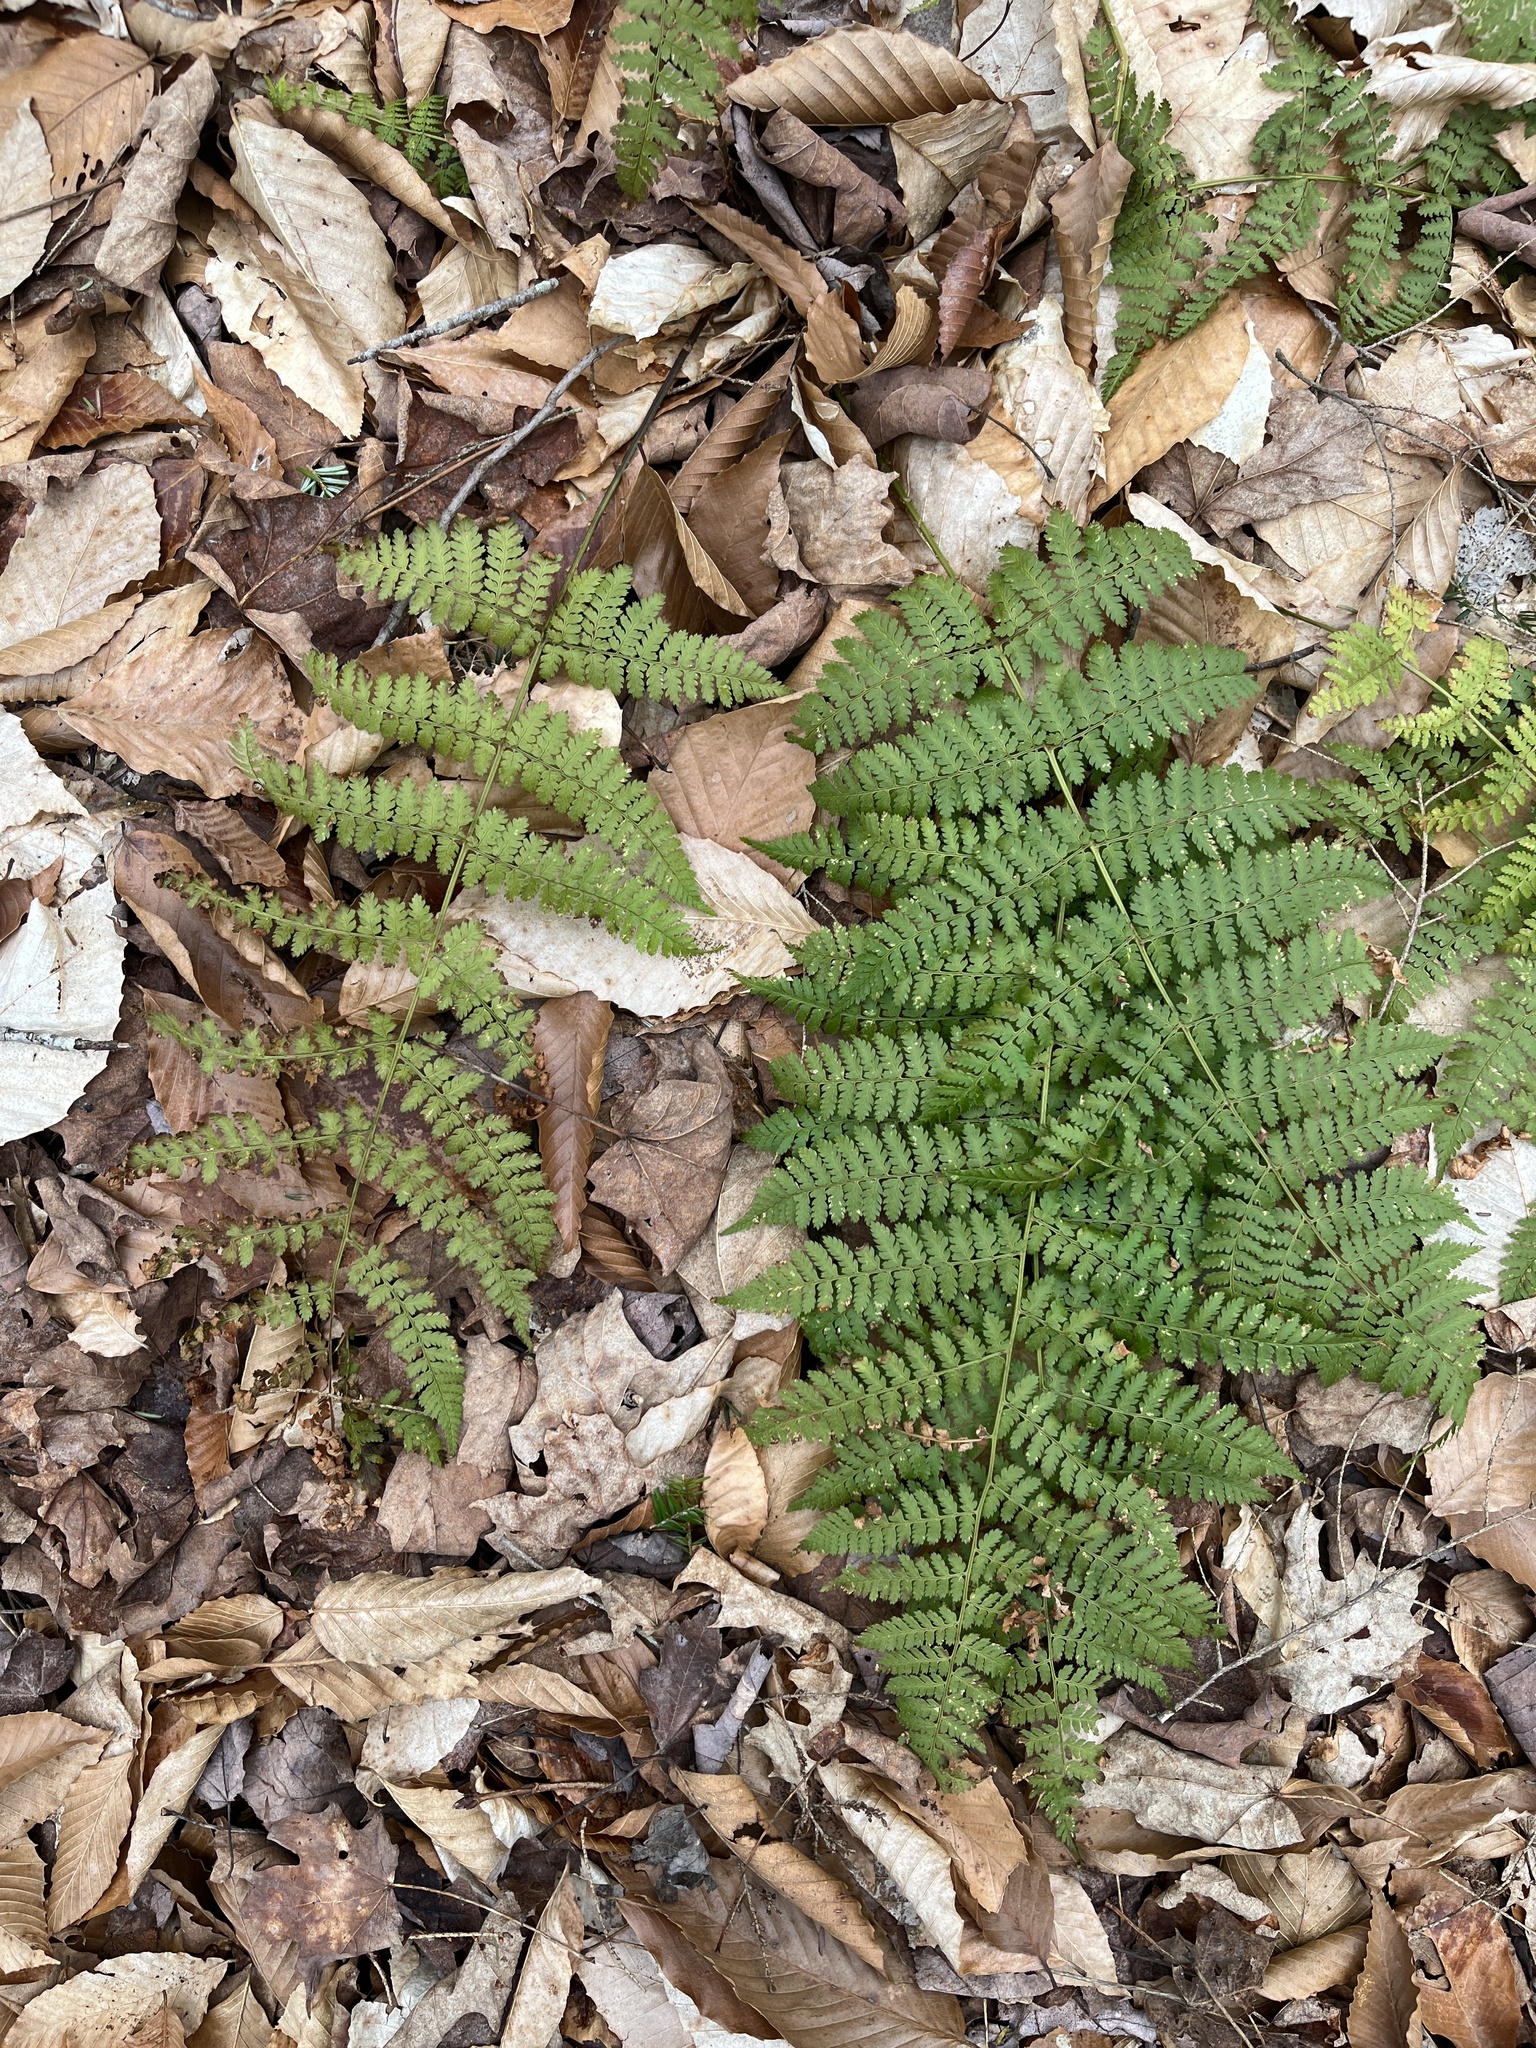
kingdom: Plantae
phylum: Tracheophyta
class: Polypodiopsida
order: Polypodiales
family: Dryopteridaceae
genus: Dryopteris
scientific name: Dryopteris intermedia
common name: Evergreen wood fern
